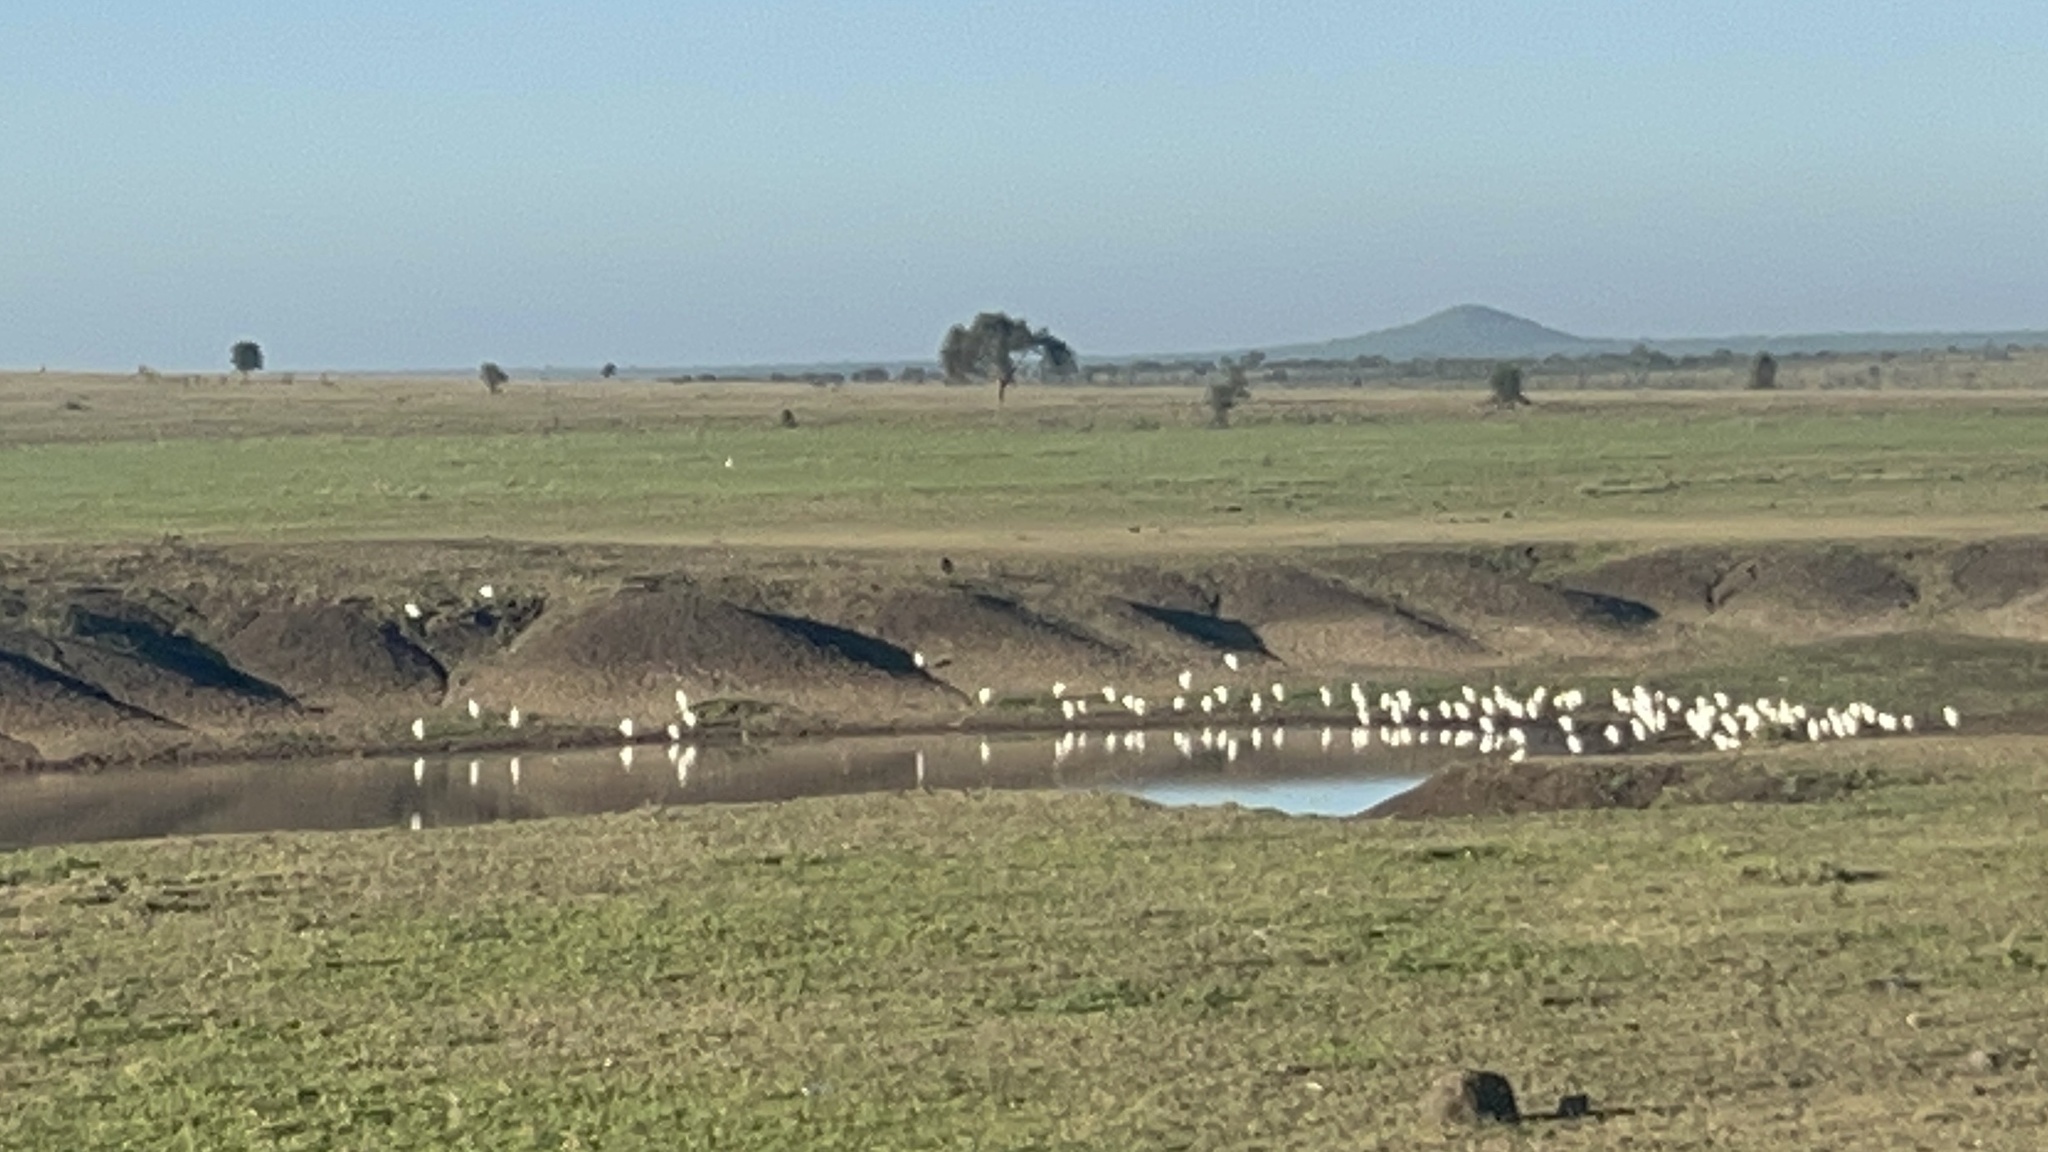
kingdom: Animalia
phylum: Chordata
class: Aves
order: Pelecaniformes
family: Ardeidae
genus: Bubulcus
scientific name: Bubulcus ibis
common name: Cattle egret
